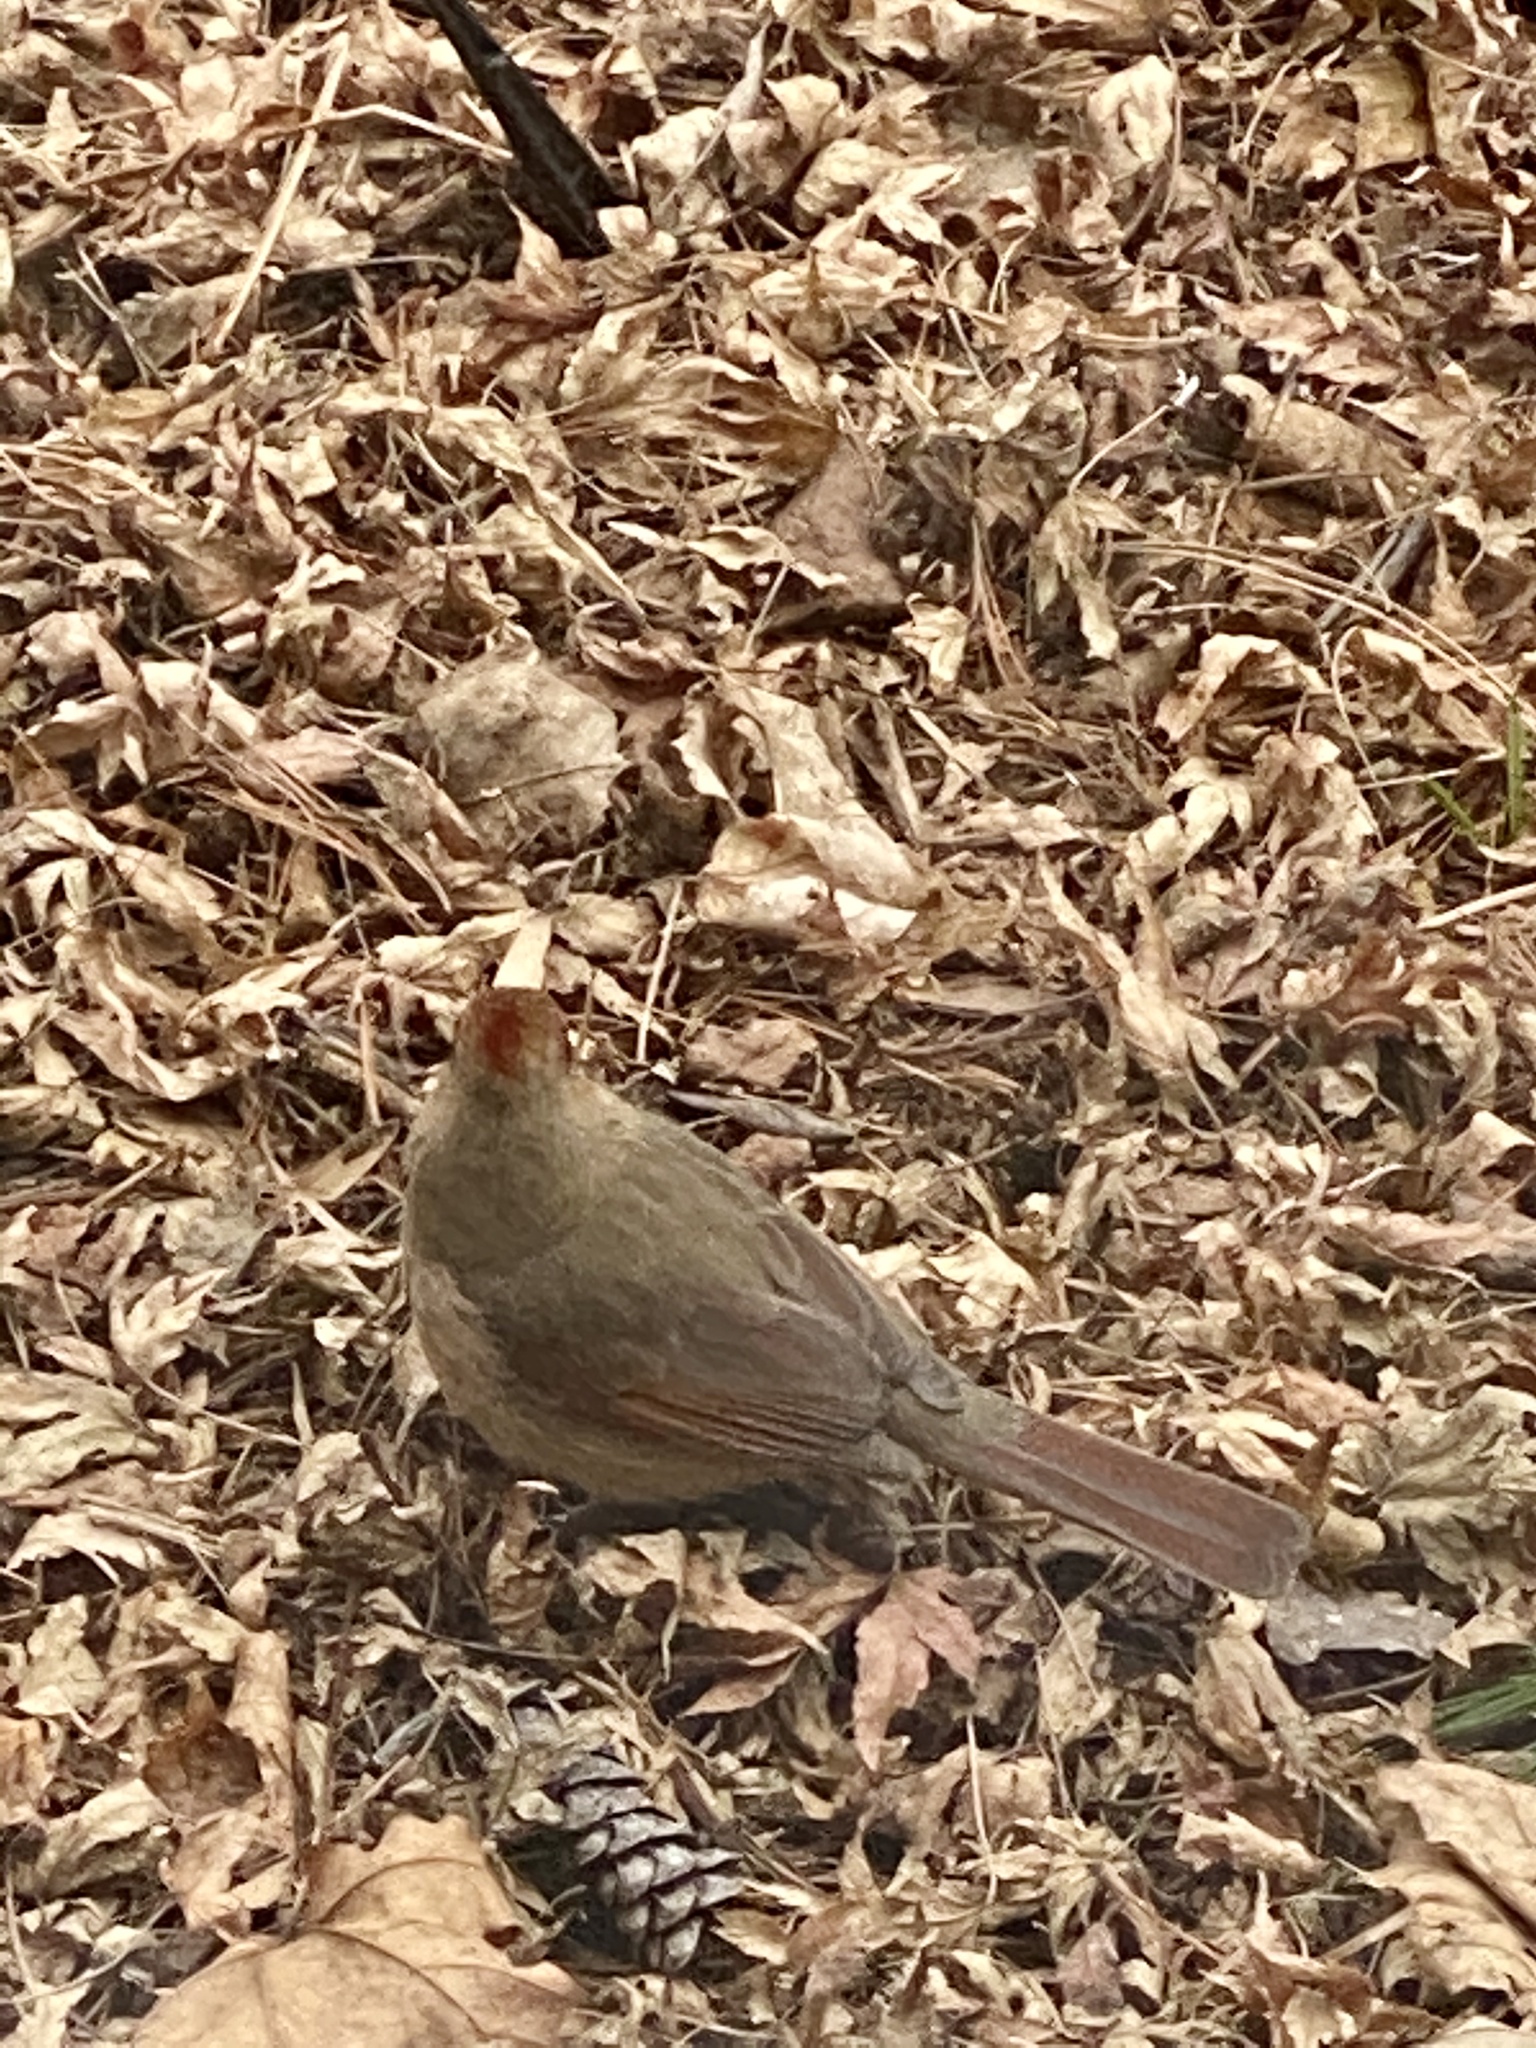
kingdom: Animalia
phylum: Chordata
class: Aves
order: Passeriformes
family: Cardinalidae
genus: Cardinalis
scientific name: Cardinalis cardinalis
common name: Northern cardinal
